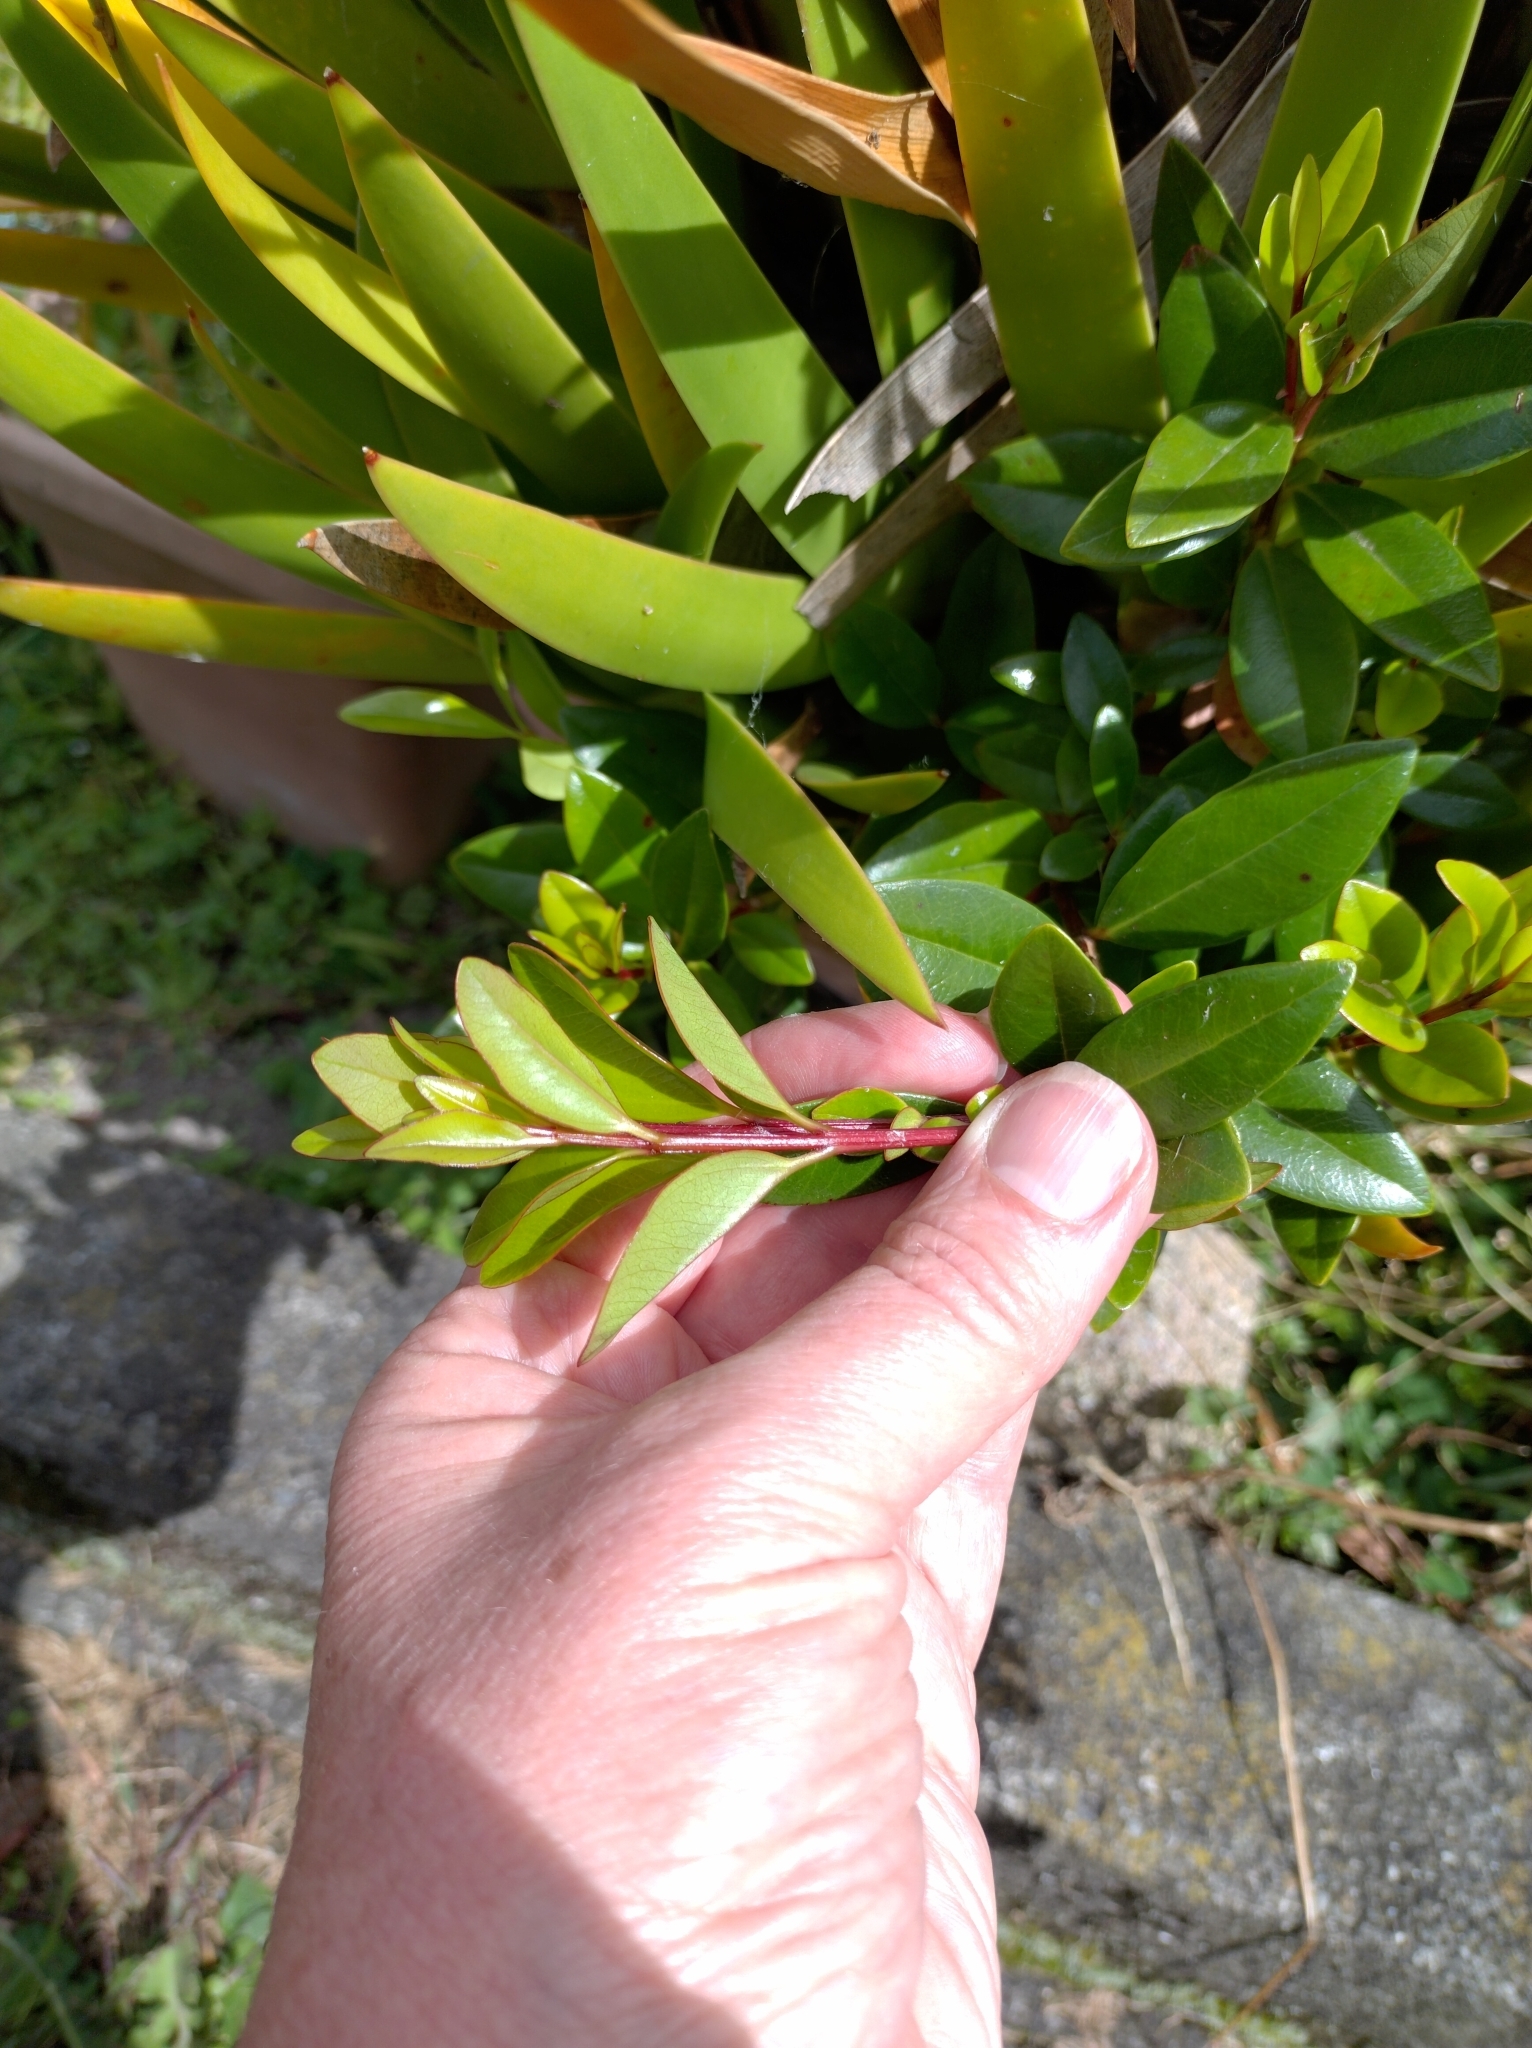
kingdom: Plantae
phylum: Tracheophyta
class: Magnoliopsida
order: Myrtales
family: Myrtaceae
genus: Metrosideros
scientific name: Metrosideros excelsa
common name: New zealand christmastree
